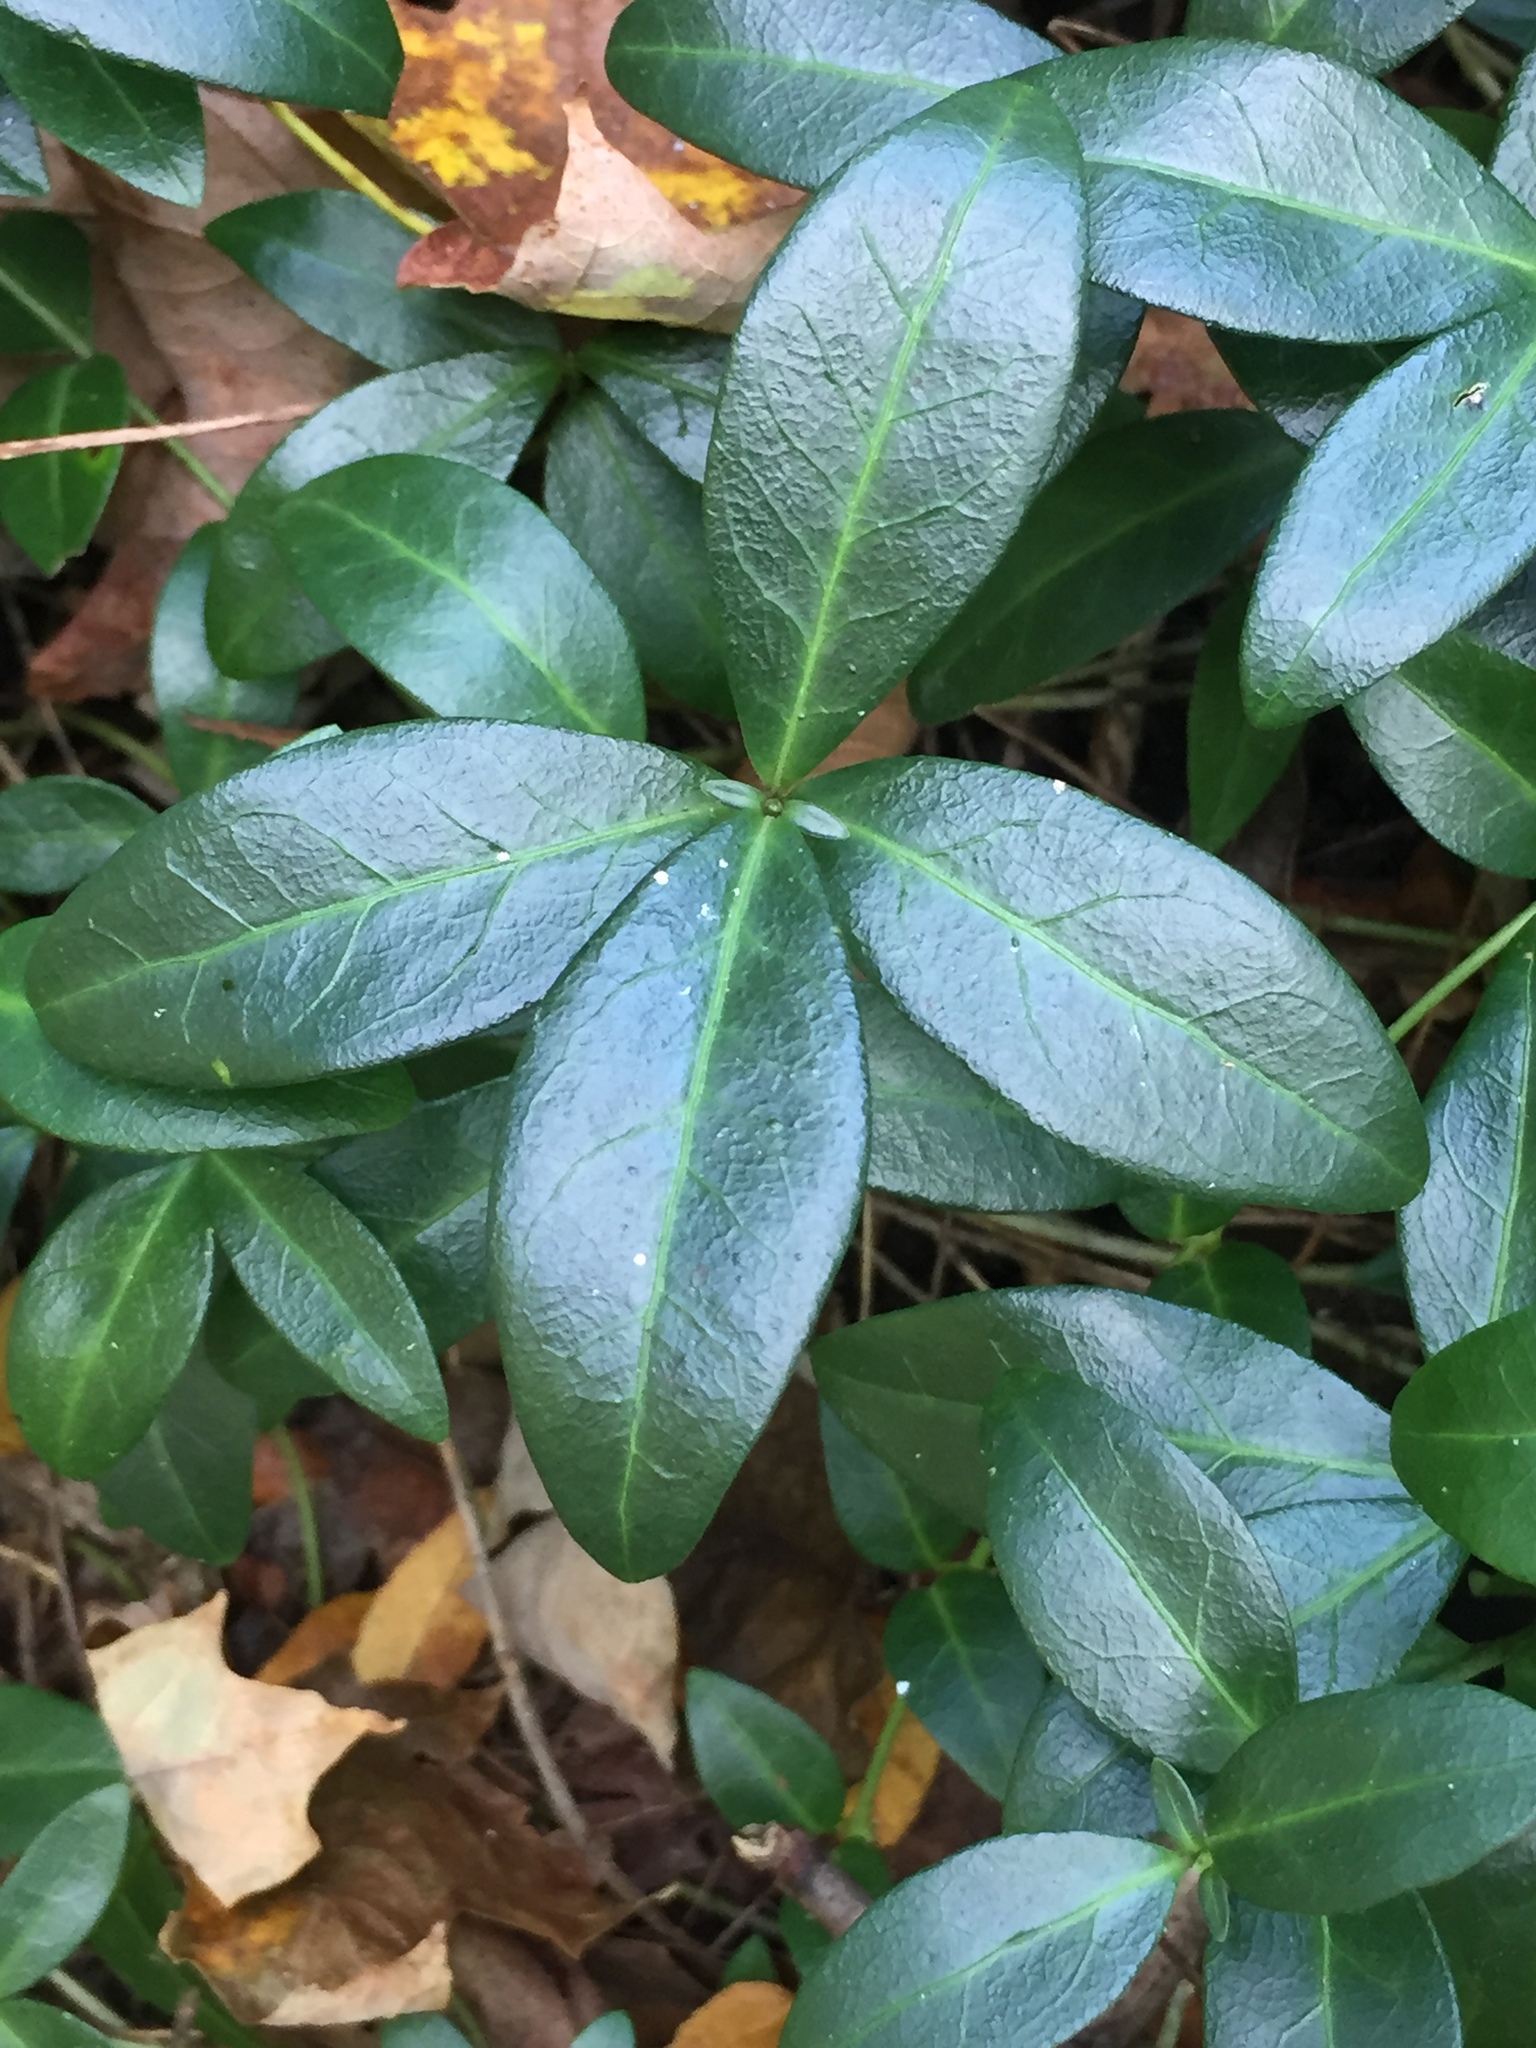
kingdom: Plantae
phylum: Tracheophyta
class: Magnoliopsida
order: Gentianales
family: Apocynaceae
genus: Vinca
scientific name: Vinca minor
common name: Lesser periwinkle
